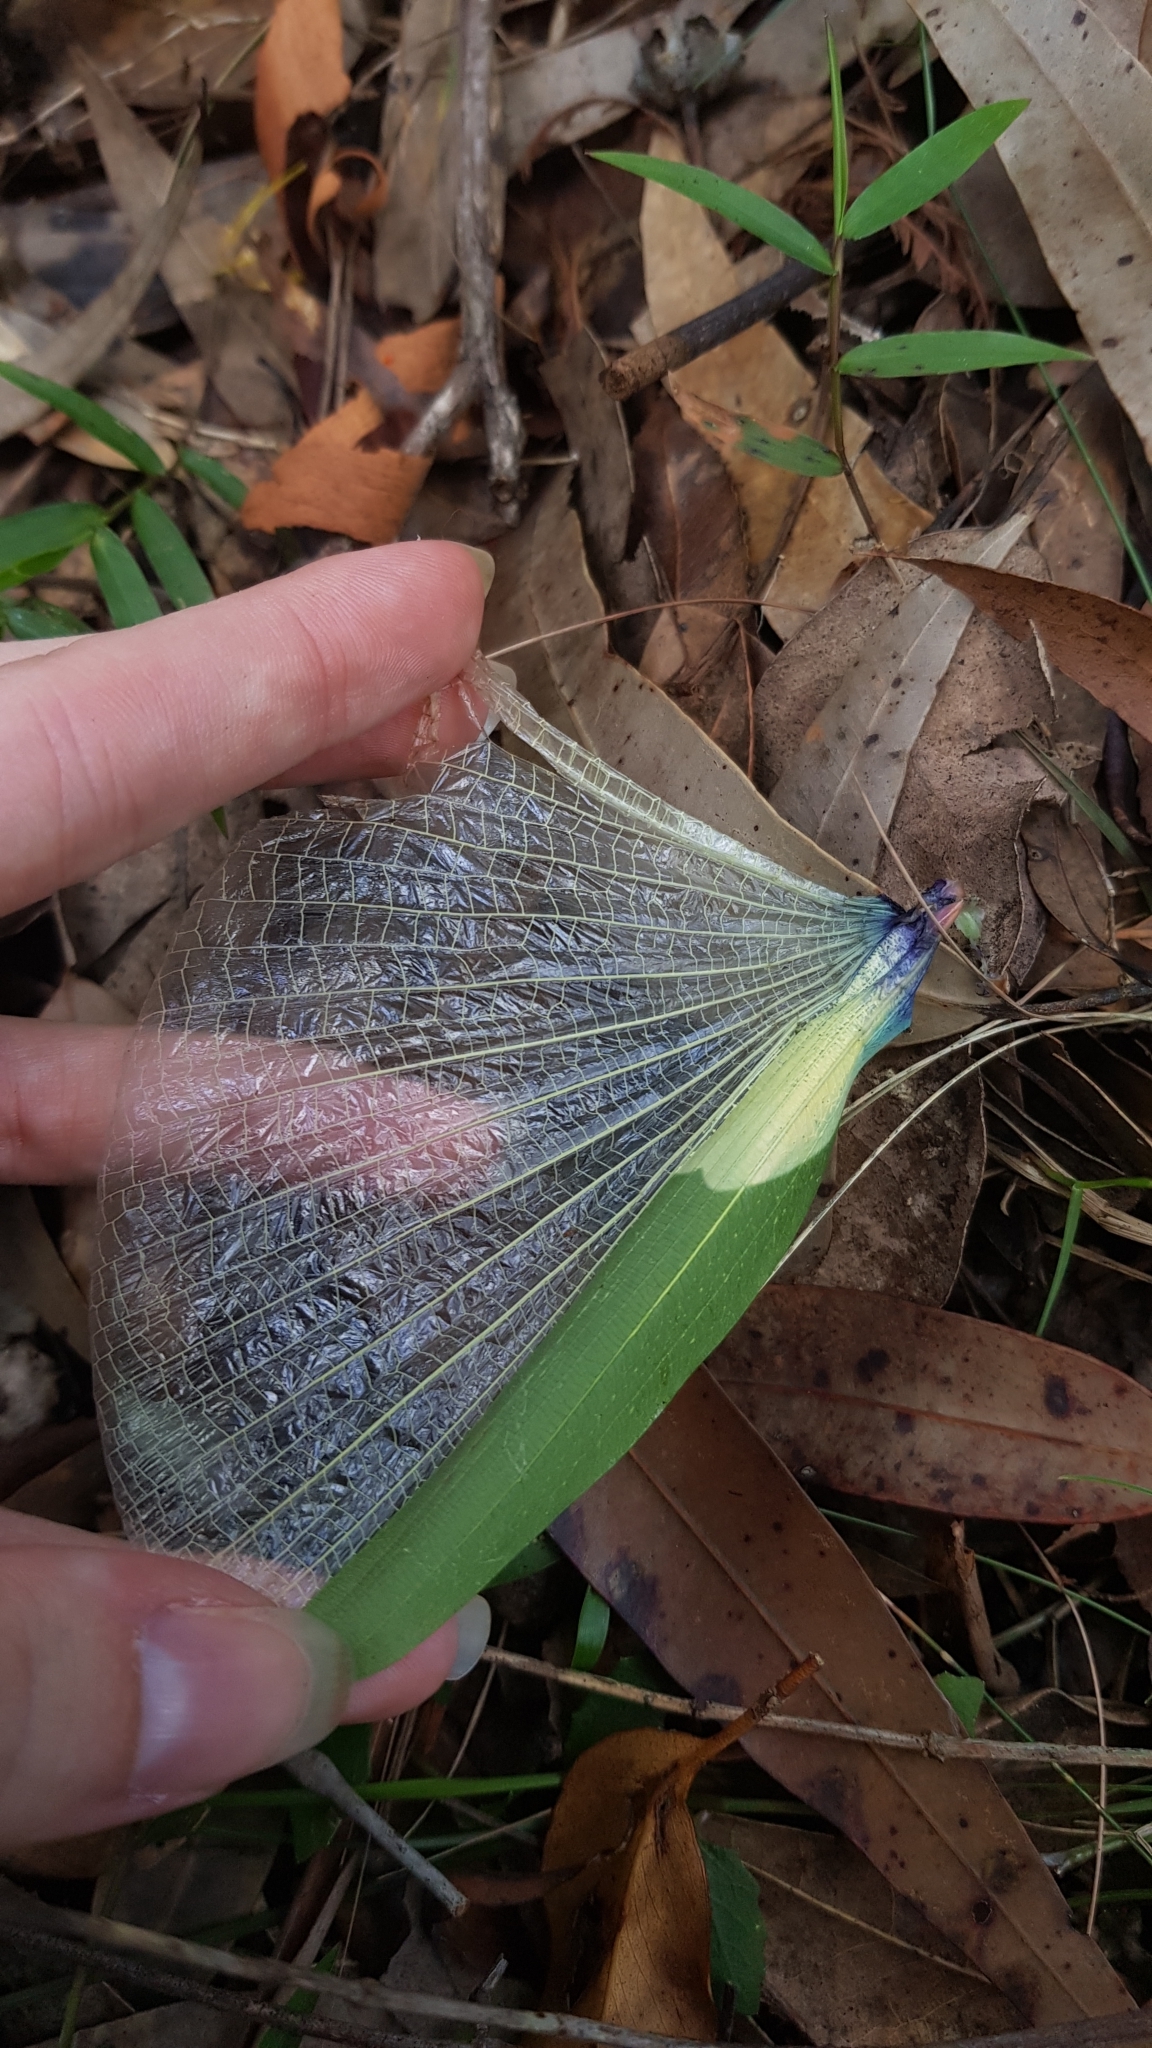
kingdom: Animalia
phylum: Arthropoda
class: Insecta
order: Phasmida
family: Phasmatidae
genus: Tropidoderus
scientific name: Tropidoderus childrenii
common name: Children's stick insect
